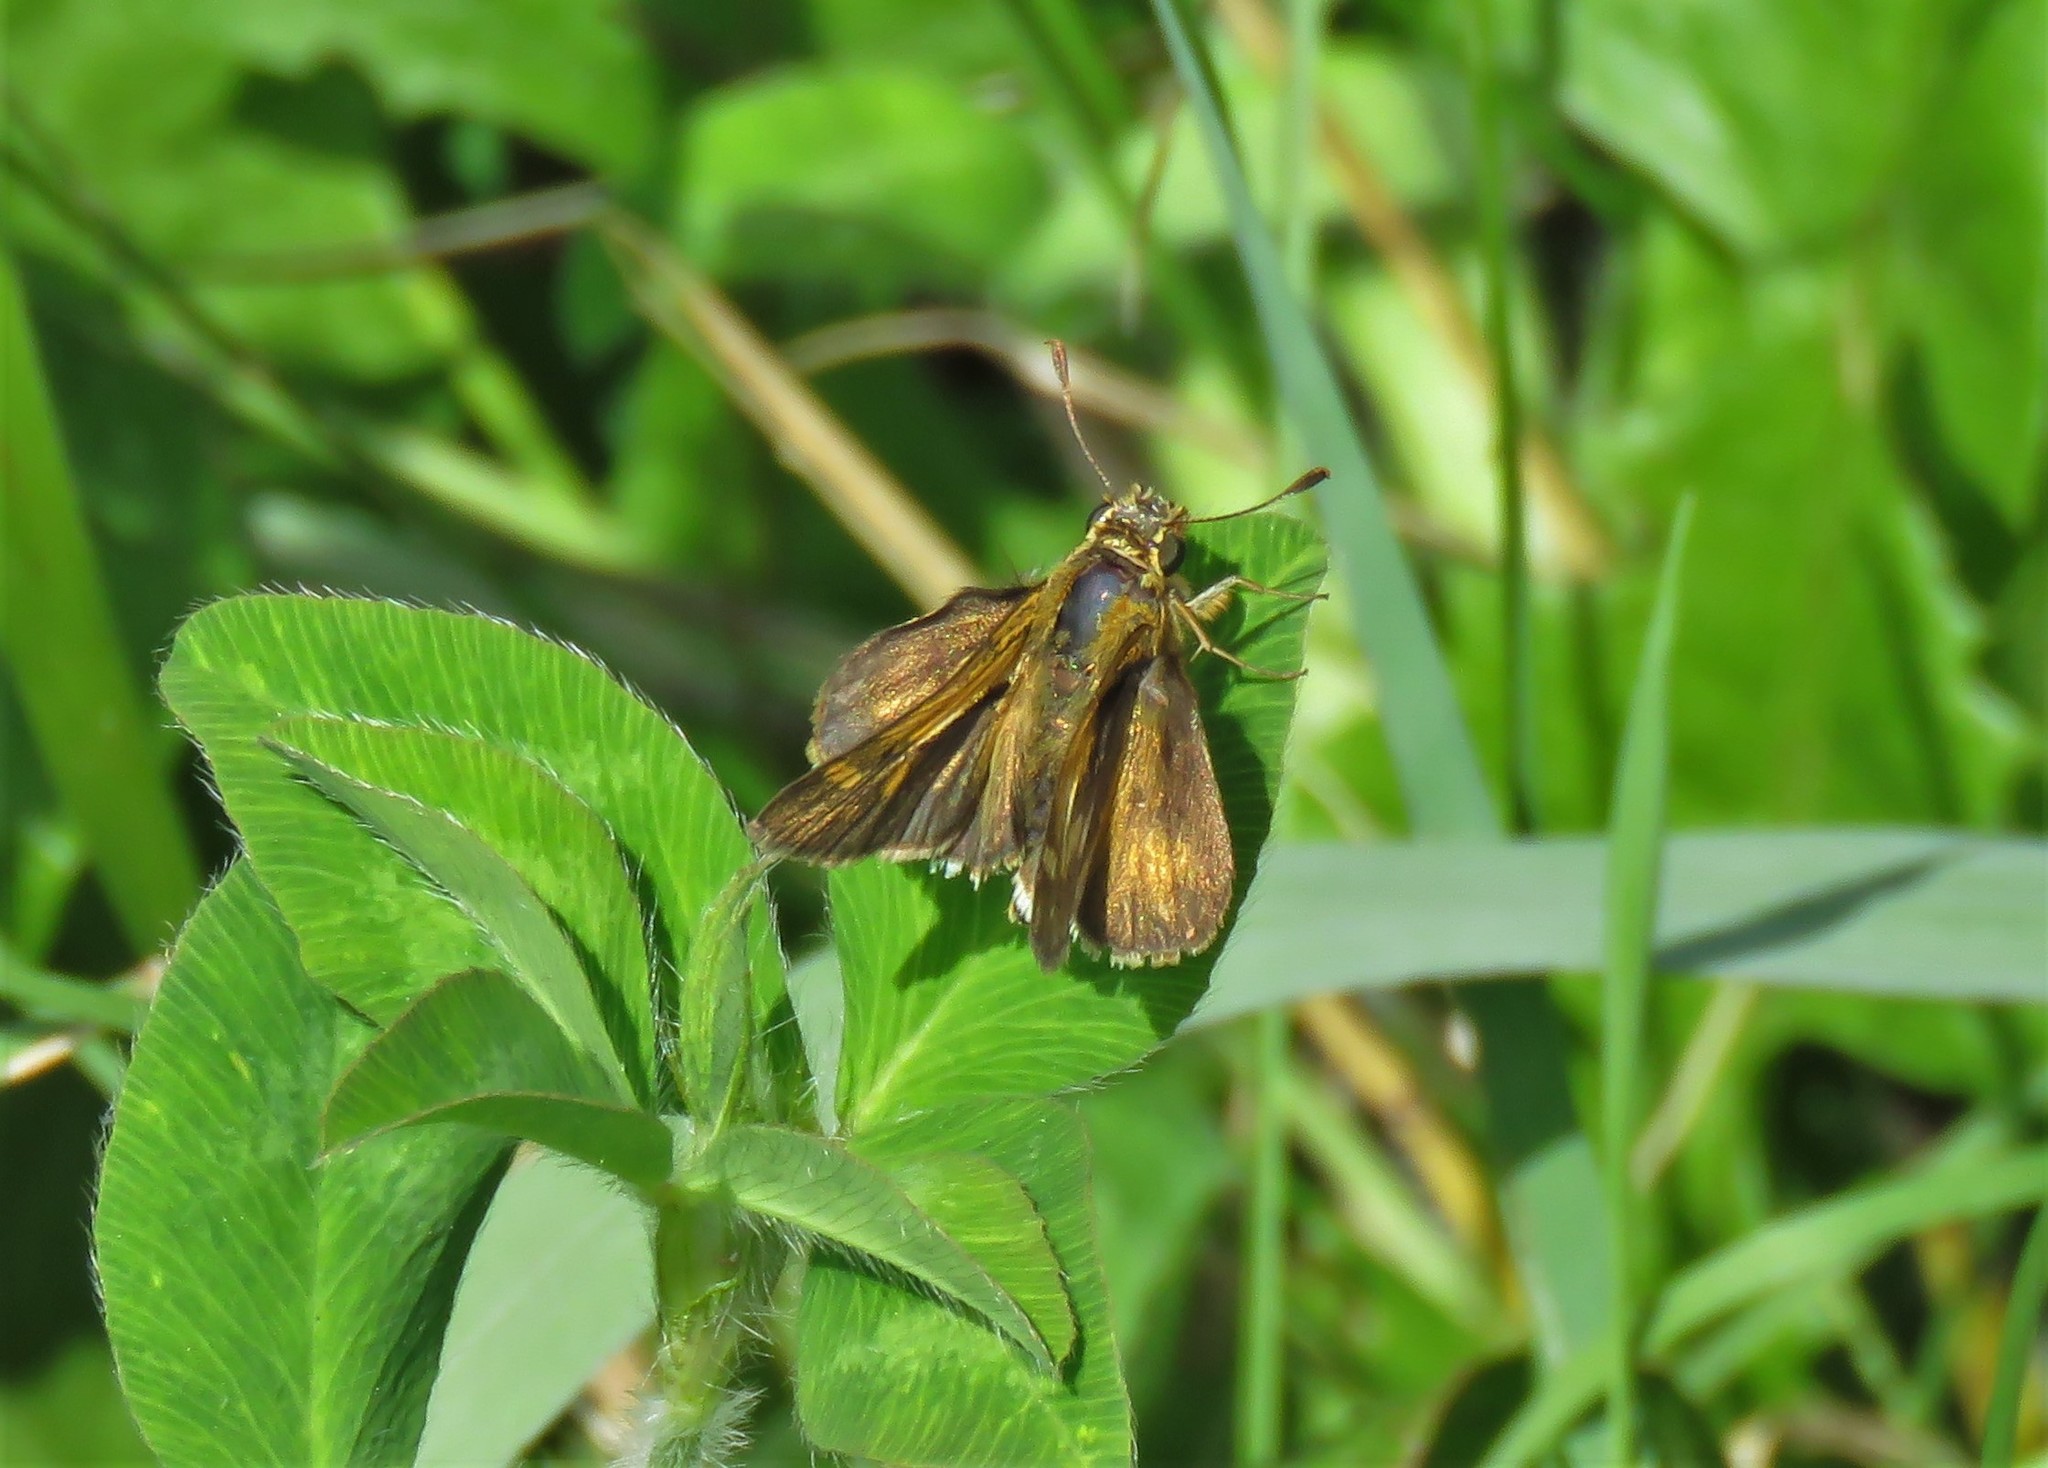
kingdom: Animalia
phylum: Arthropoda
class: Insecta
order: Lepidoptera
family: Hesperiidae
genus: Polites
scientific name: Polites egeremet
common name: Northern broken-dash
